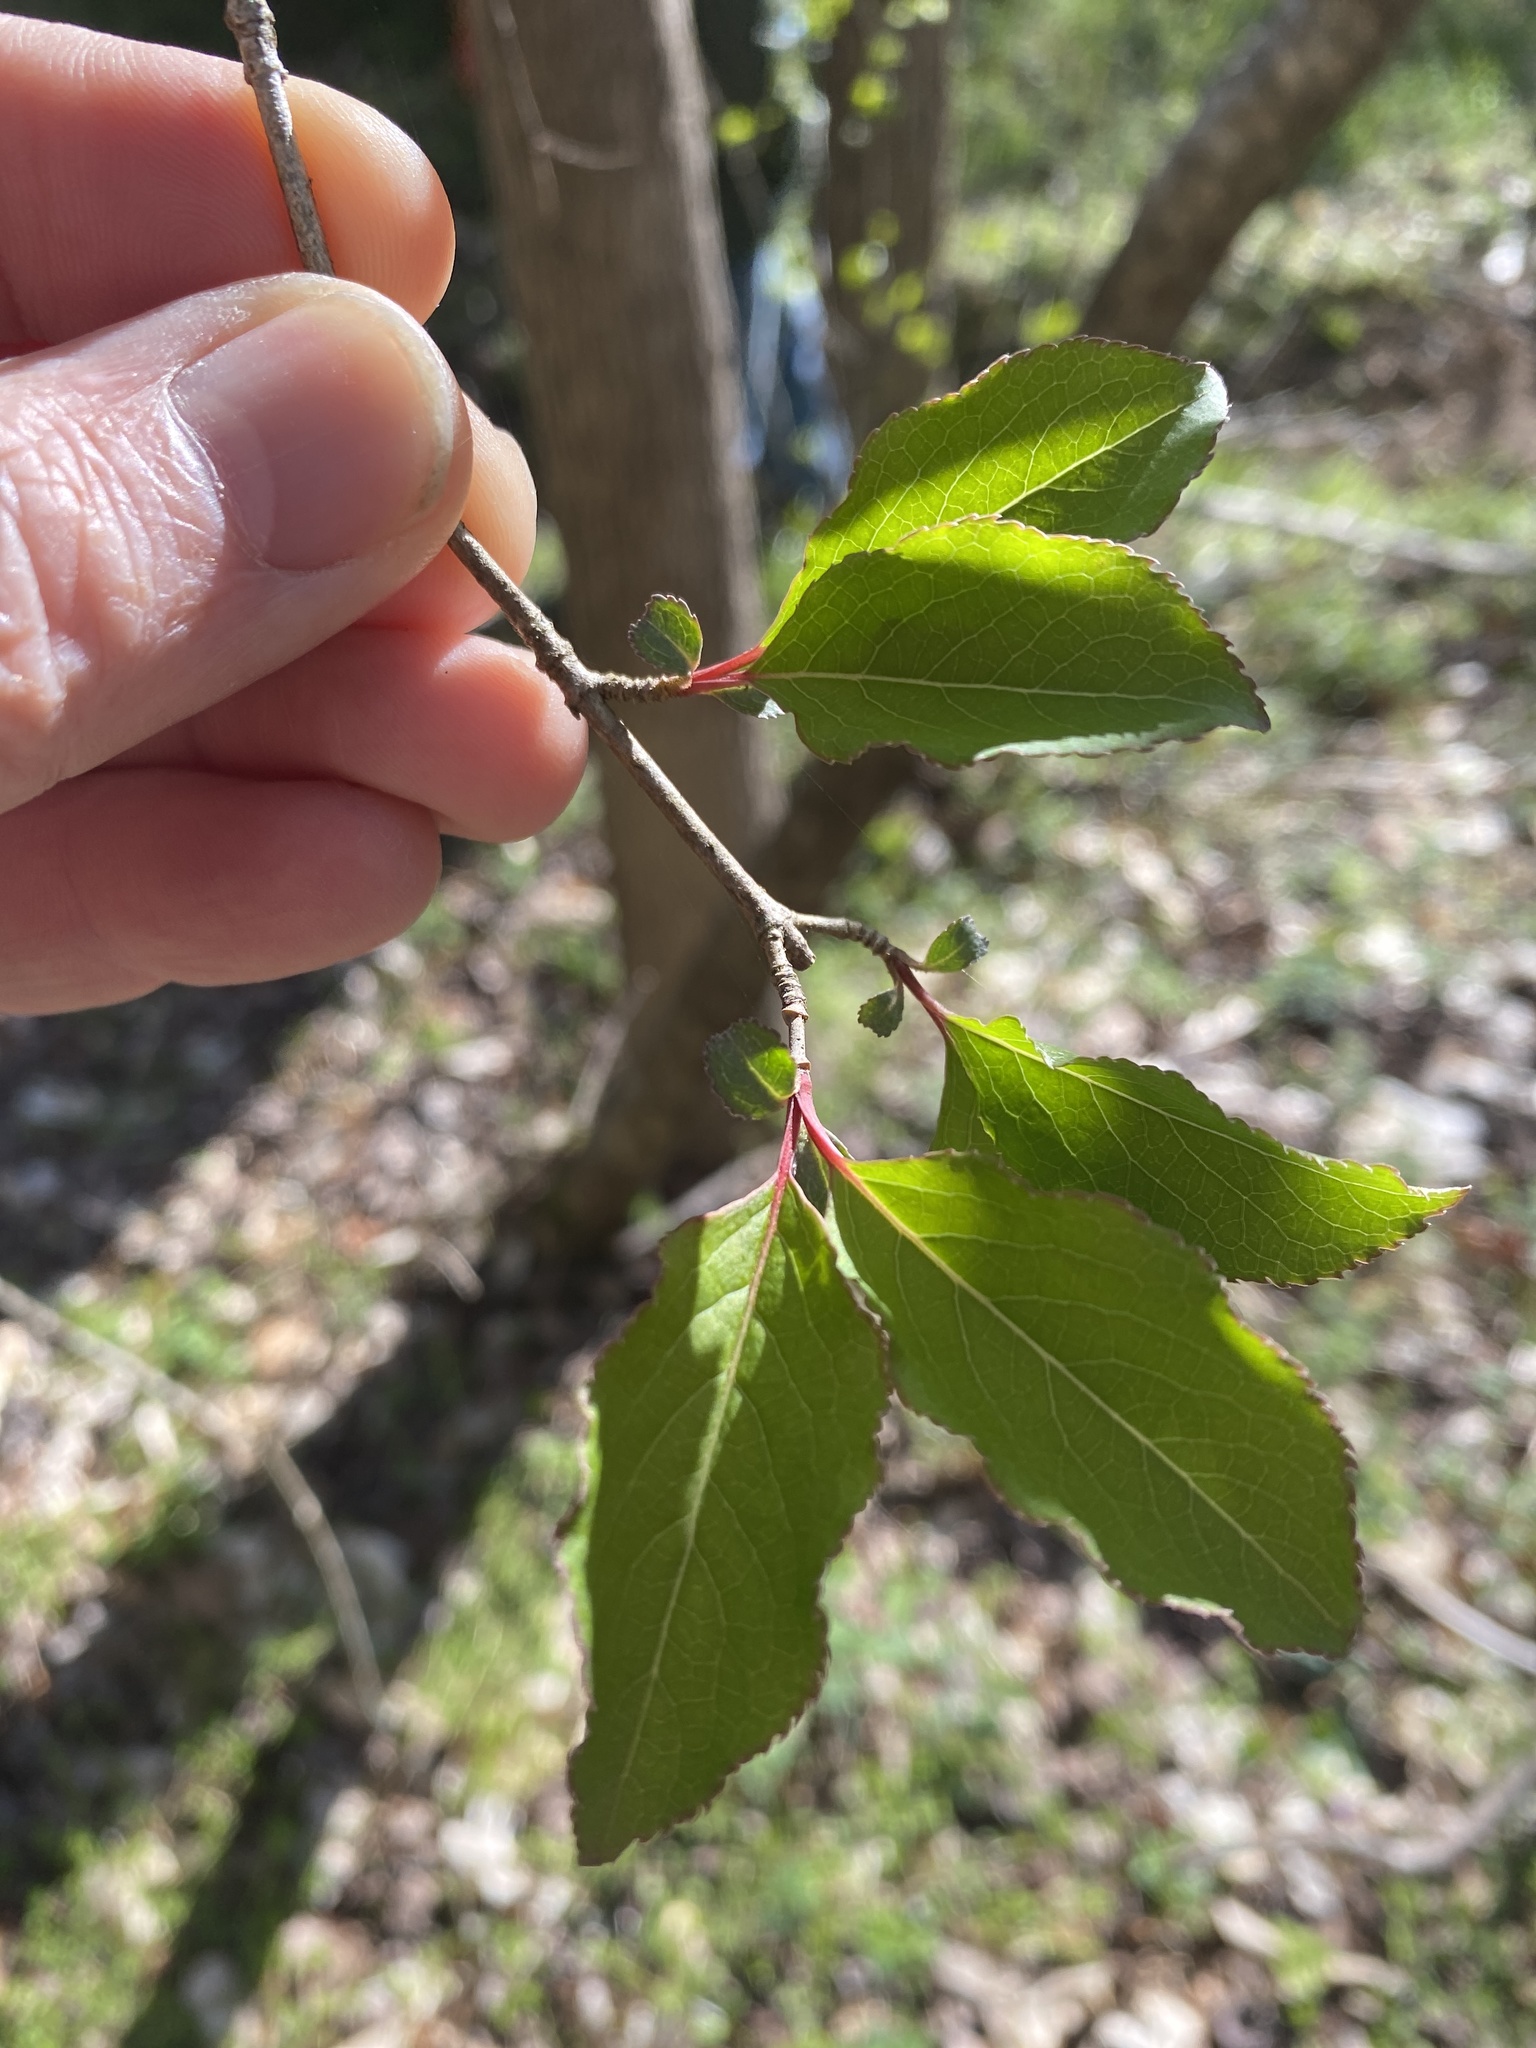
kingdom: Plantae
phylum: Tracheophyta
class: Magnoliopsida
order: Dipsacales
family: Viburnaceae
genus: Viburnum
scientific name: Viburnum prunifolium
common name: Black haw
